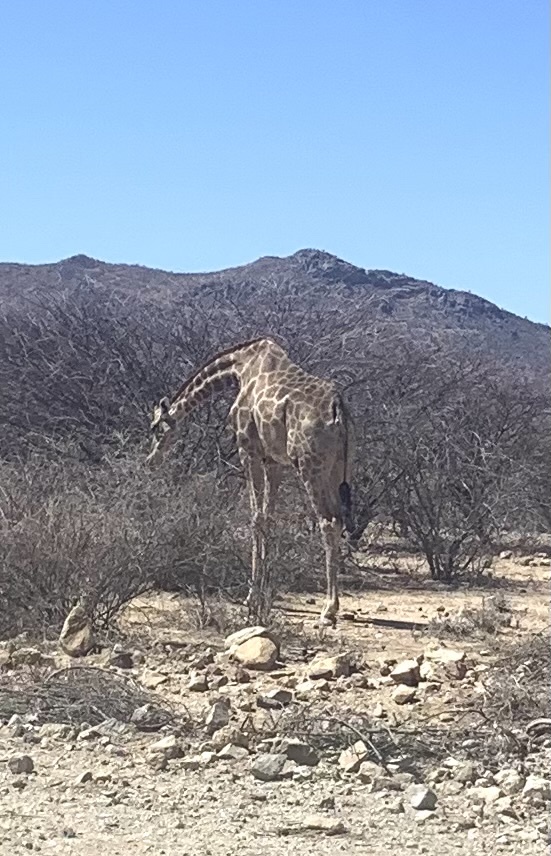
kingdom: Animalia
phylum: Chordata
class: Mammalia
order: Artiodactyla
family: Giraffidae
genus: Giraffa
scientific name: Giraffa giraffa
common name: Southern giraffe
